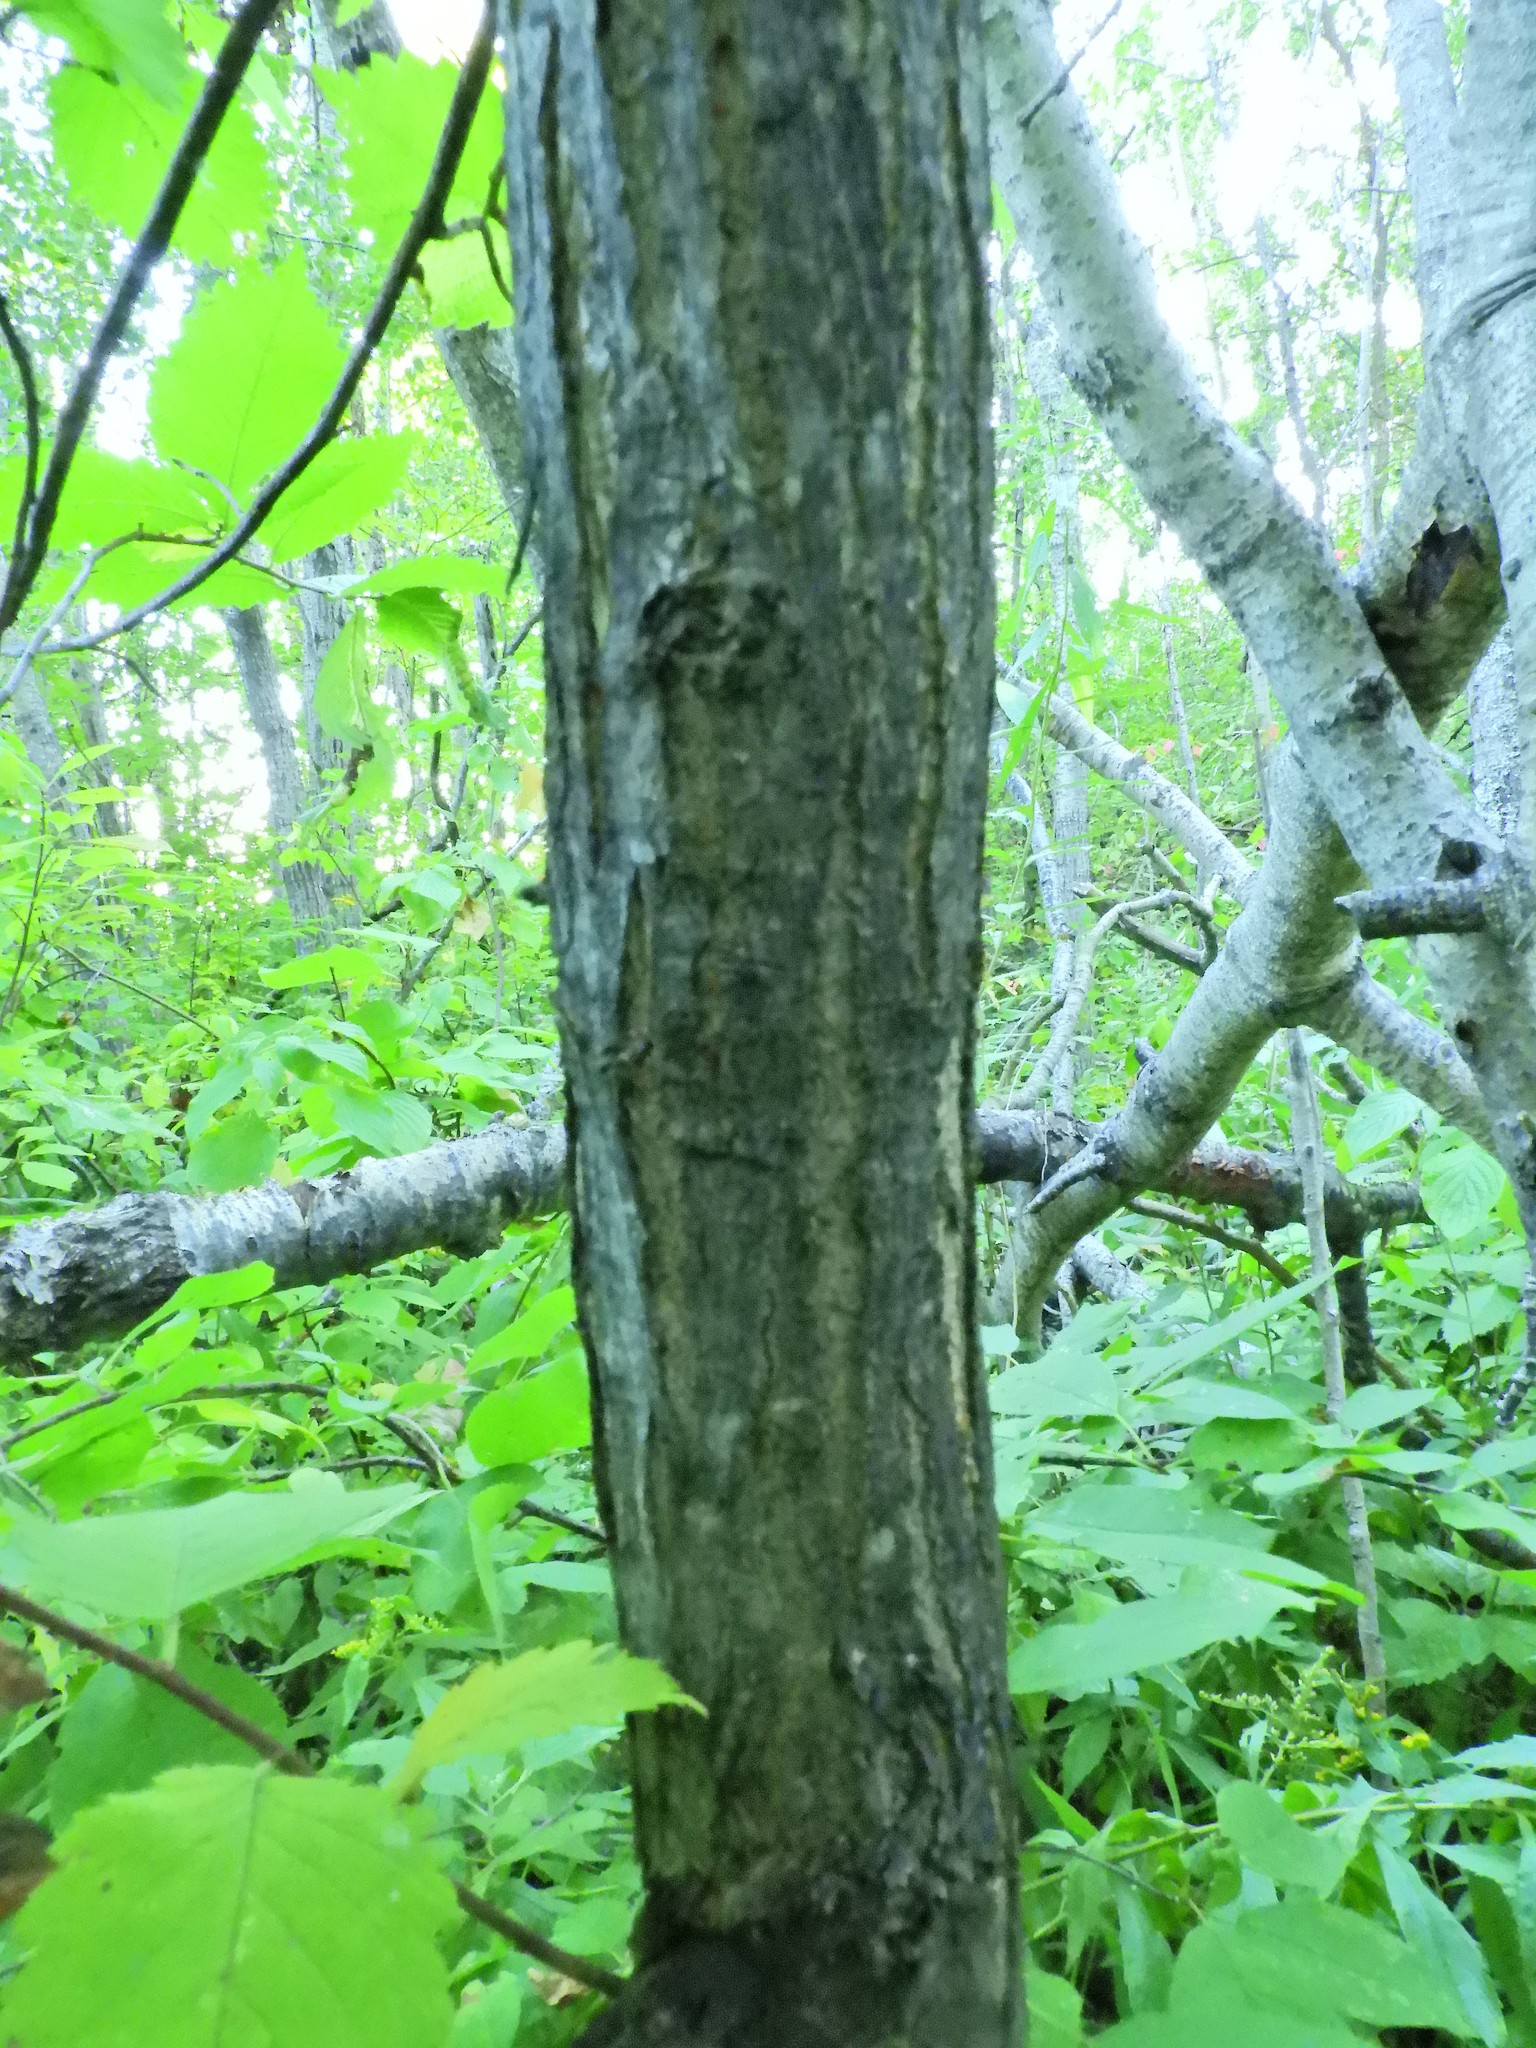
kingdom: Plantae
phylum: Tracheophyta
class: Magnoliopsida
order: Rosales
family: Ulmaceae
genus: Ulmus
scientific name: Ulmus americana
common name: American elm
